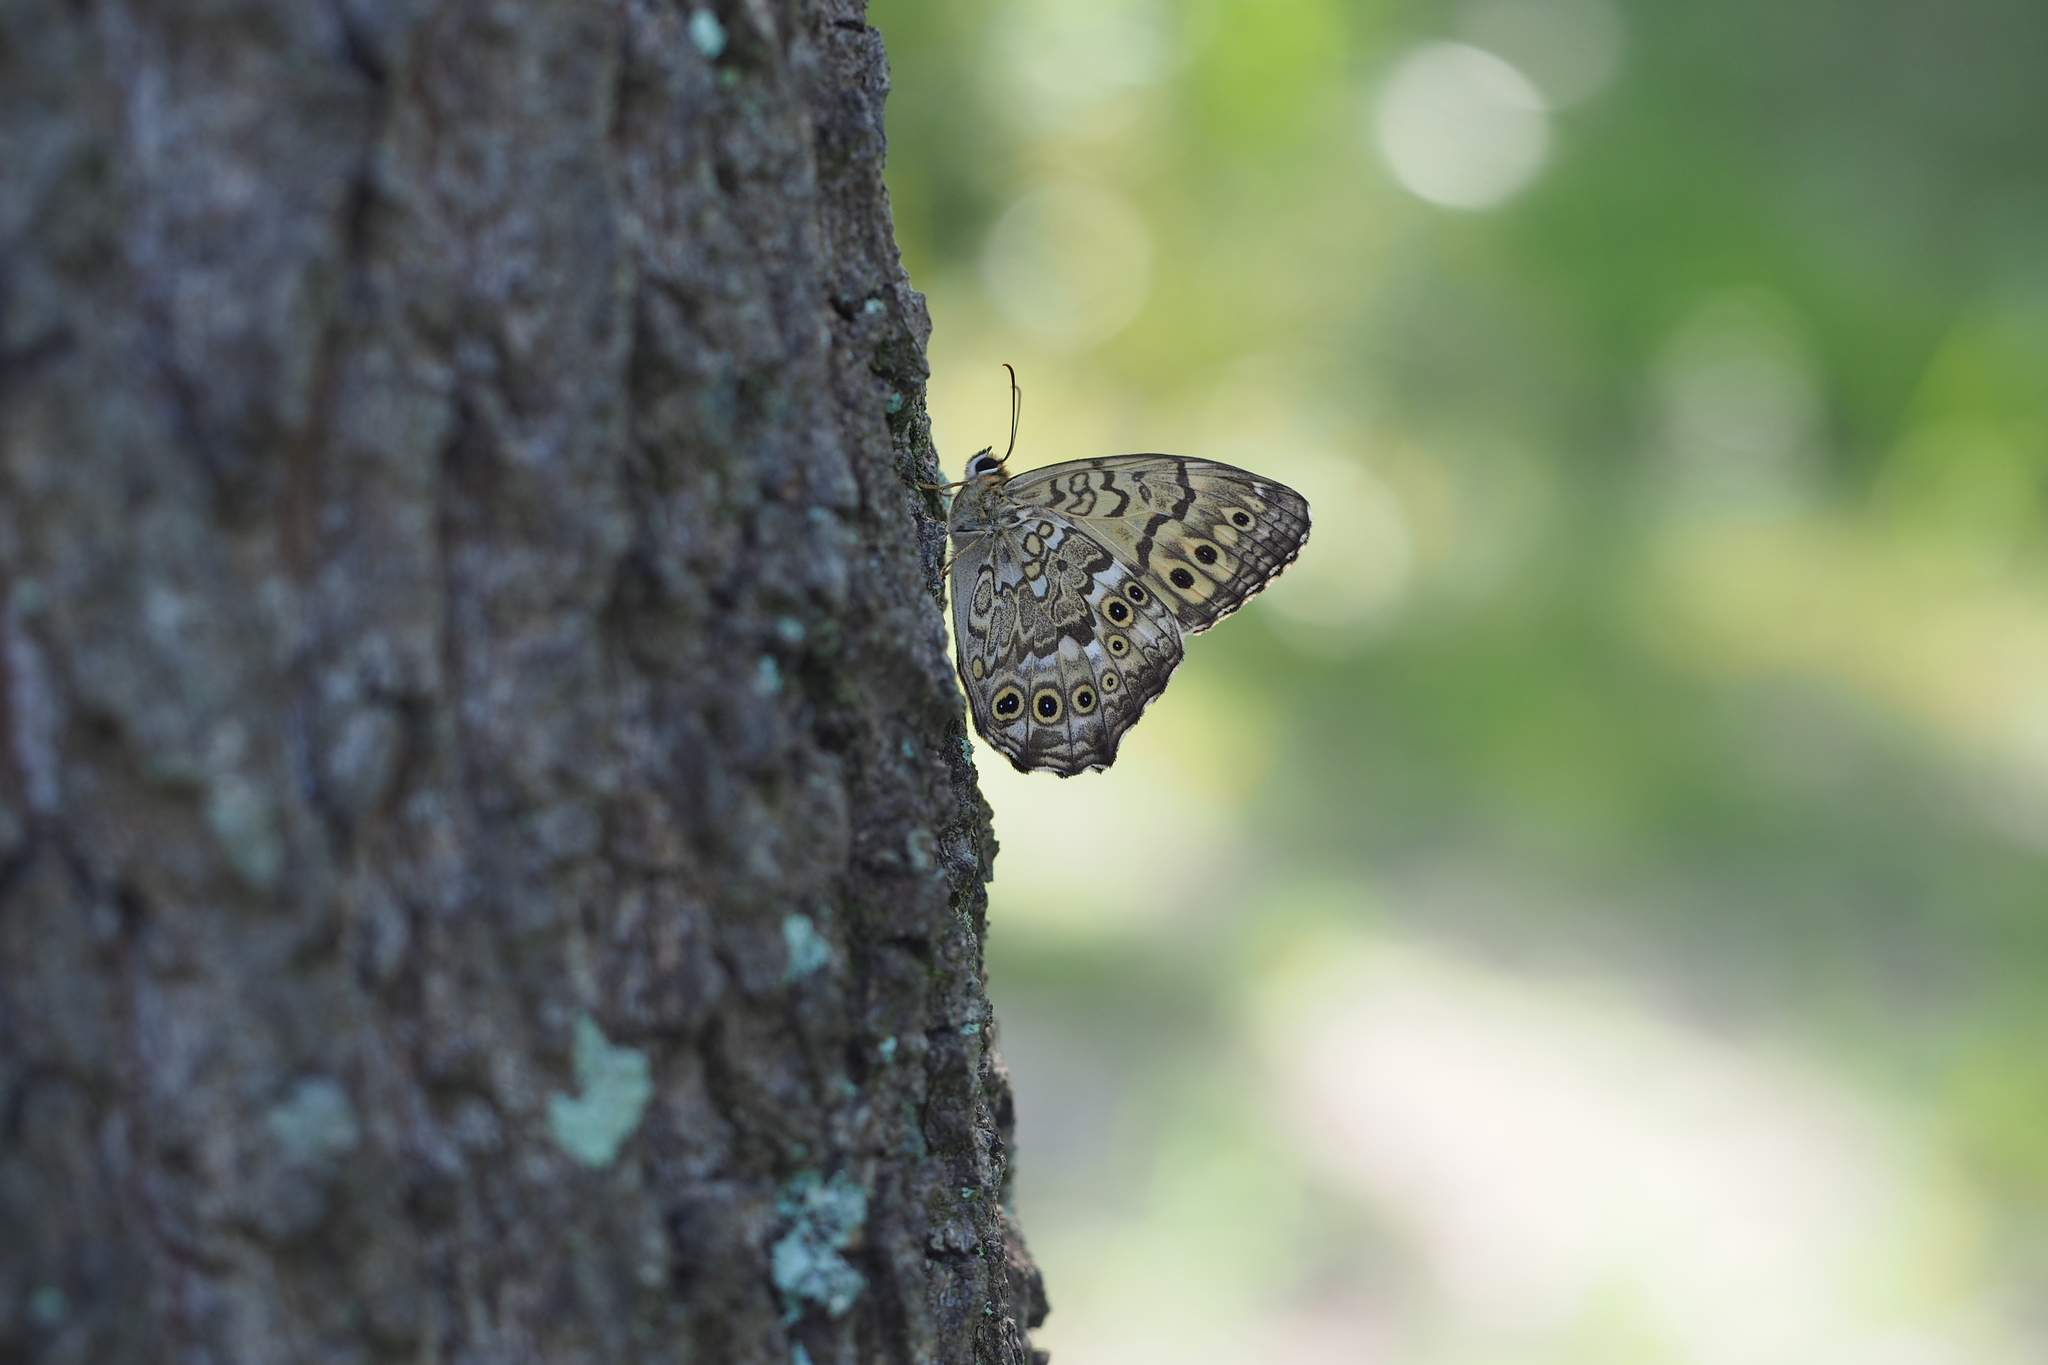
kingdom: Animalia
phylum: Arthropoda
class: Insecta
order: Lepidoptera
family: Nymphalidae
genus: Neope
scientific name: Neope goschkevitschii
